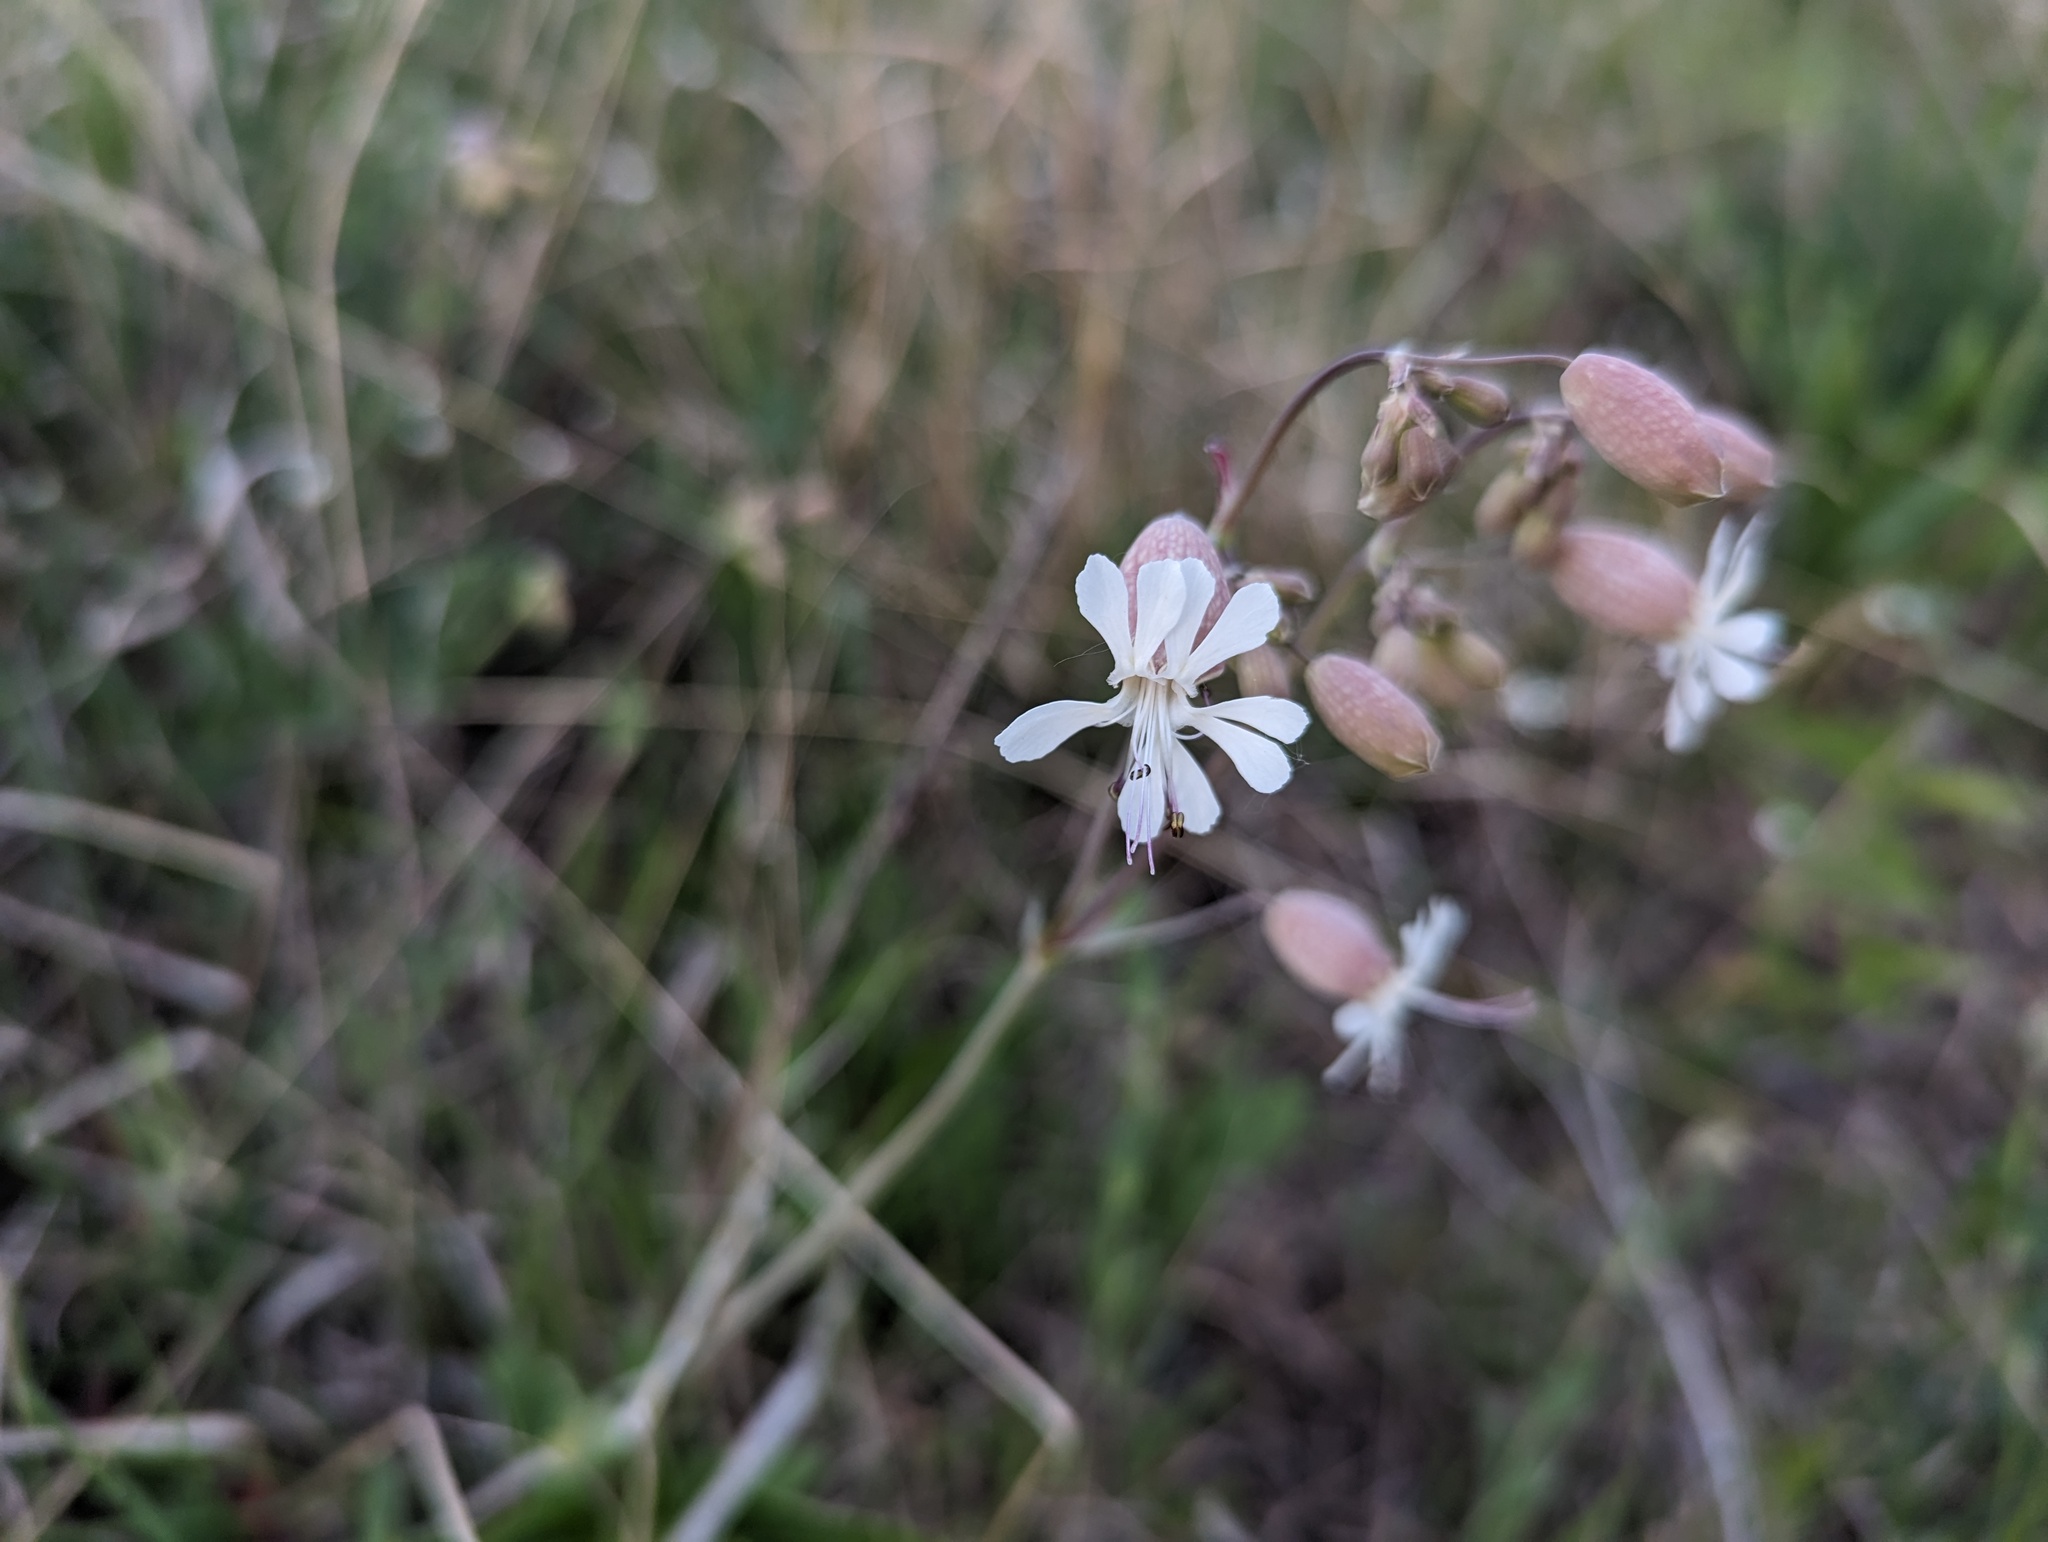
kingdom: Plantae
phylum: Tracheophyta
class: Magnoliopsida
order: Caryophyllales
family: Caryophyllaceae
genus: Silene
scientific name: Silene vulgaris
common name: Bladder campion
